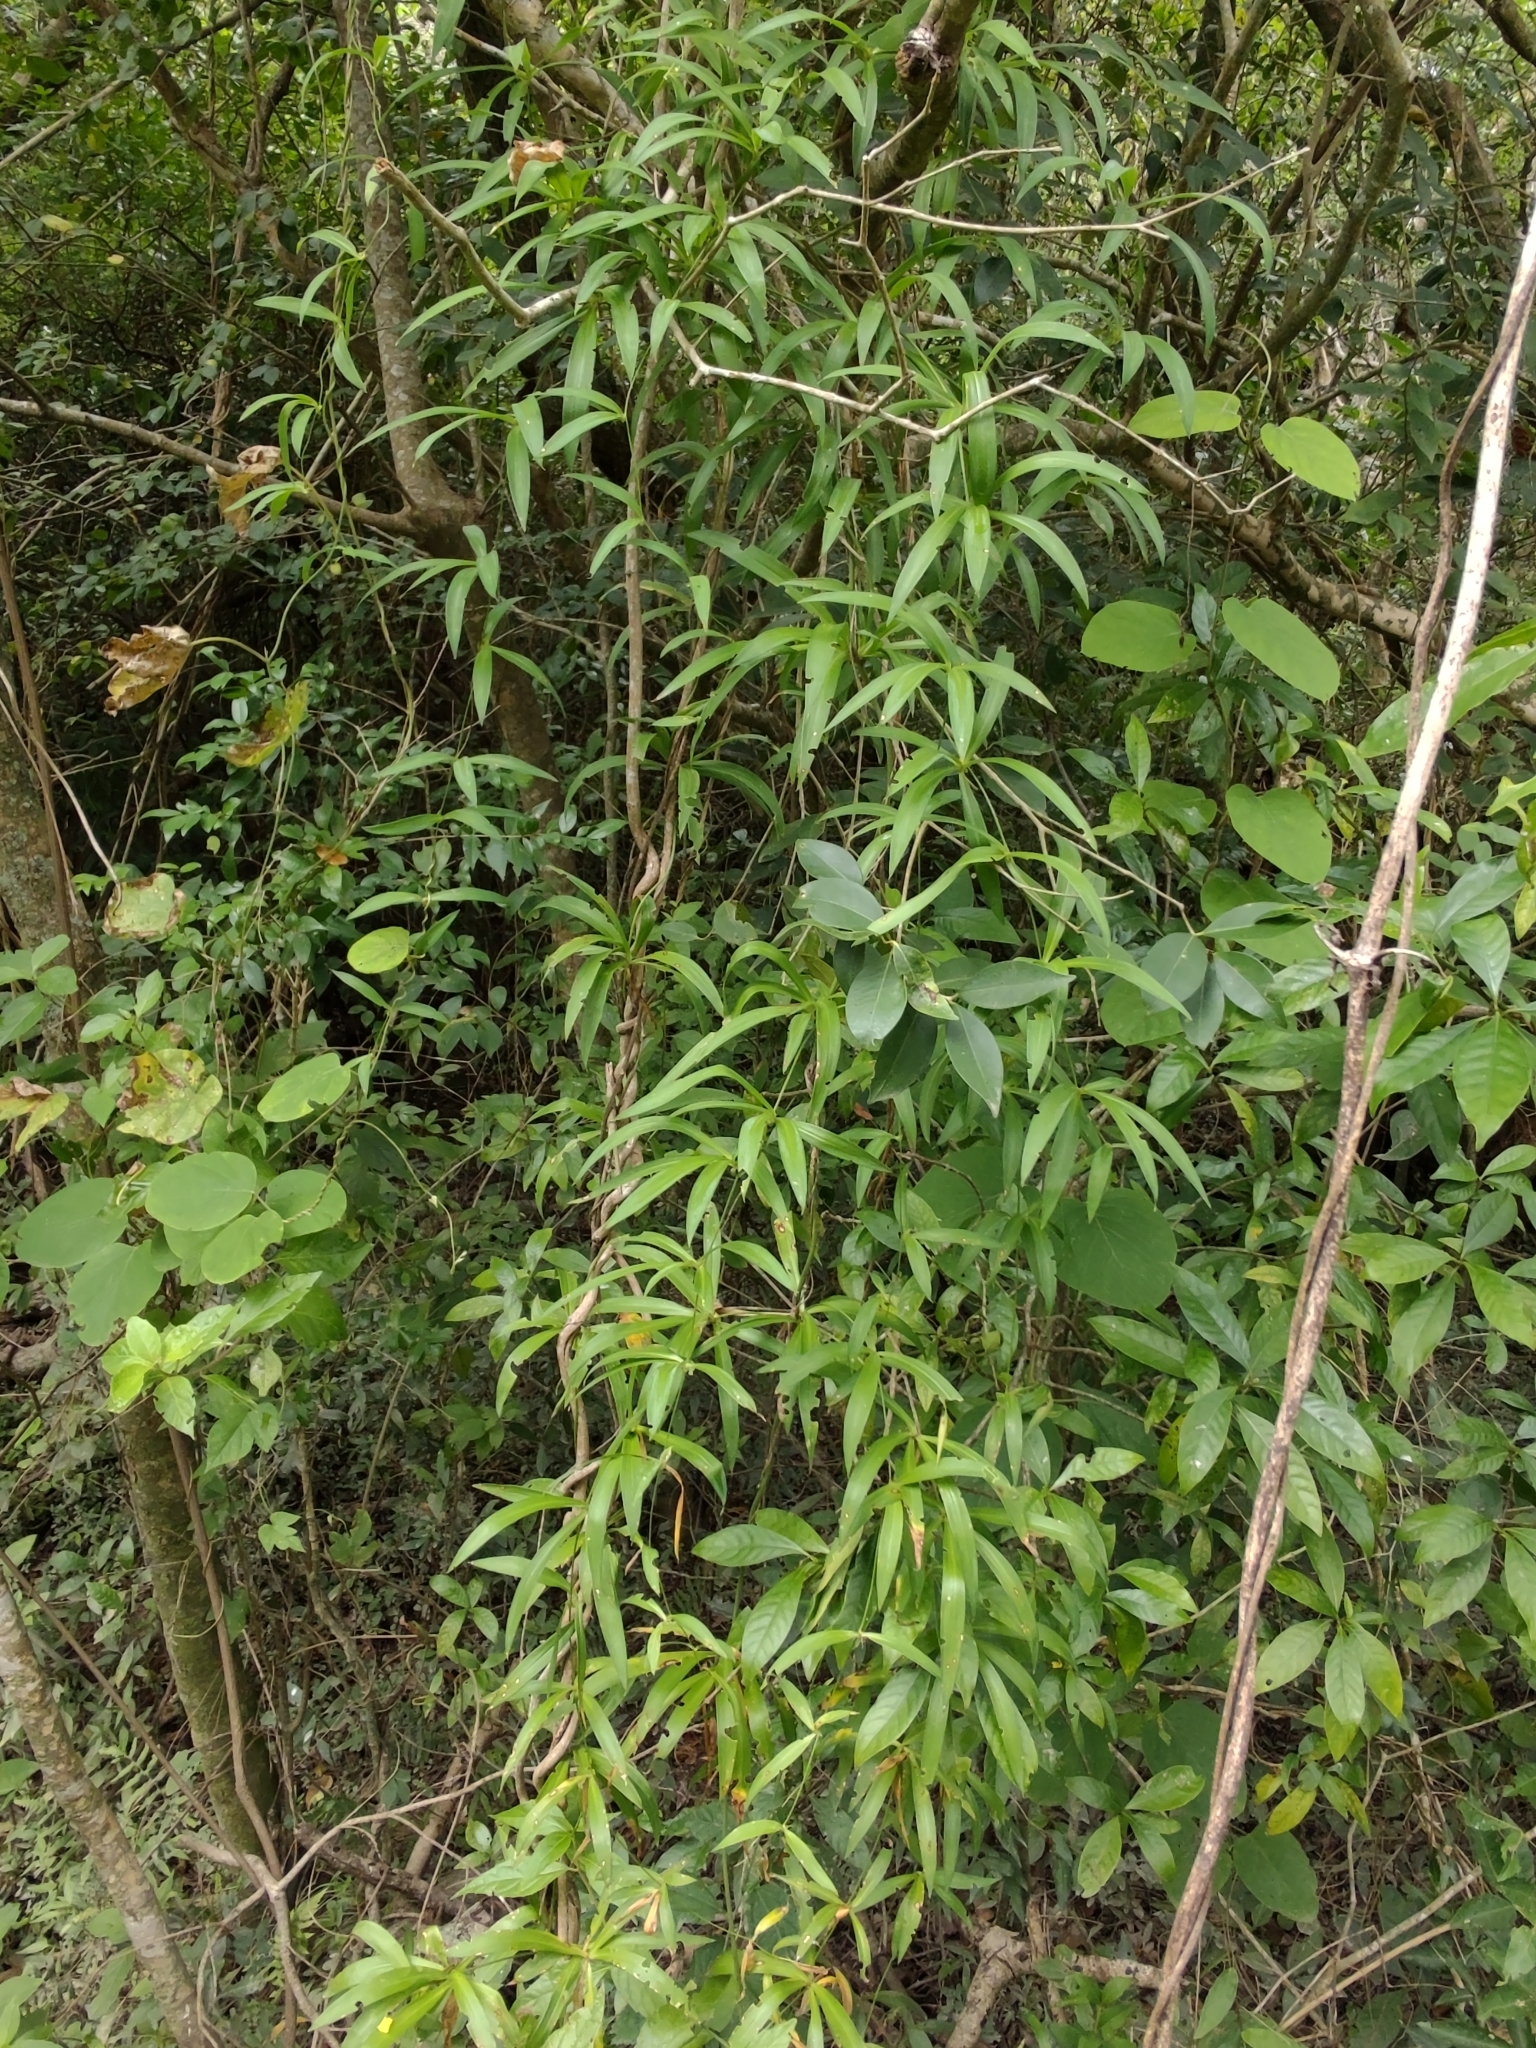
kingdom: Plantae
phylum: Tracheophyta
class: Liliopsida
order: Asparagales
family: Asparagaceae
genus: Herreria
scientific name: Herreria montevidensis
